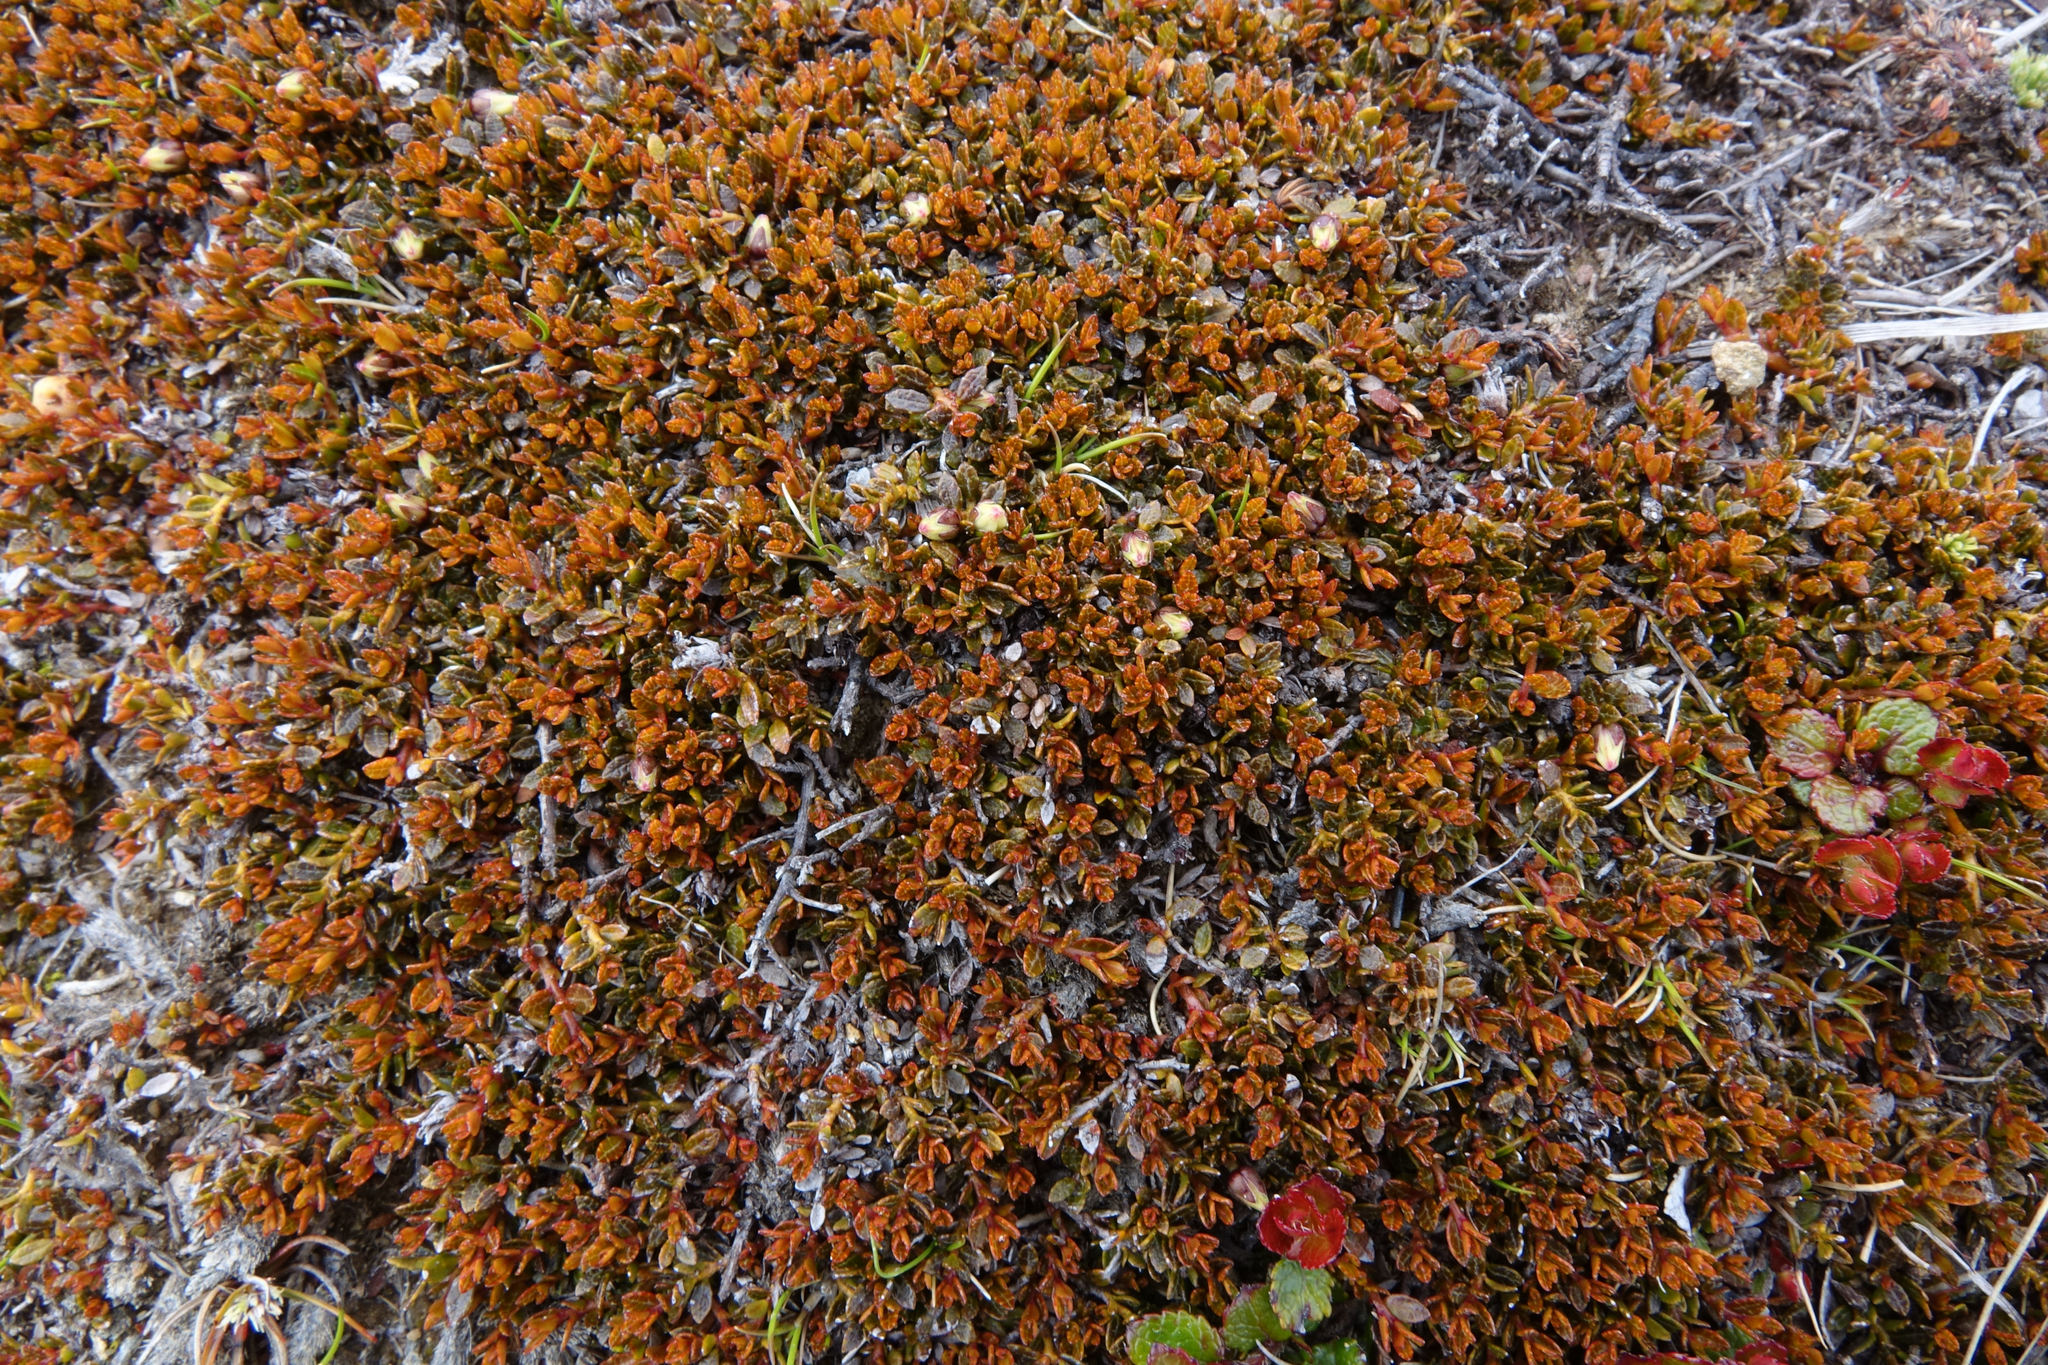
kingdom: Plantae
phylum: Tracheophyta
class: Magnoliopsida
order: Ericales
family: Ericaceae
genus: Gaultheria
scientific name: Gaultheria parvula
